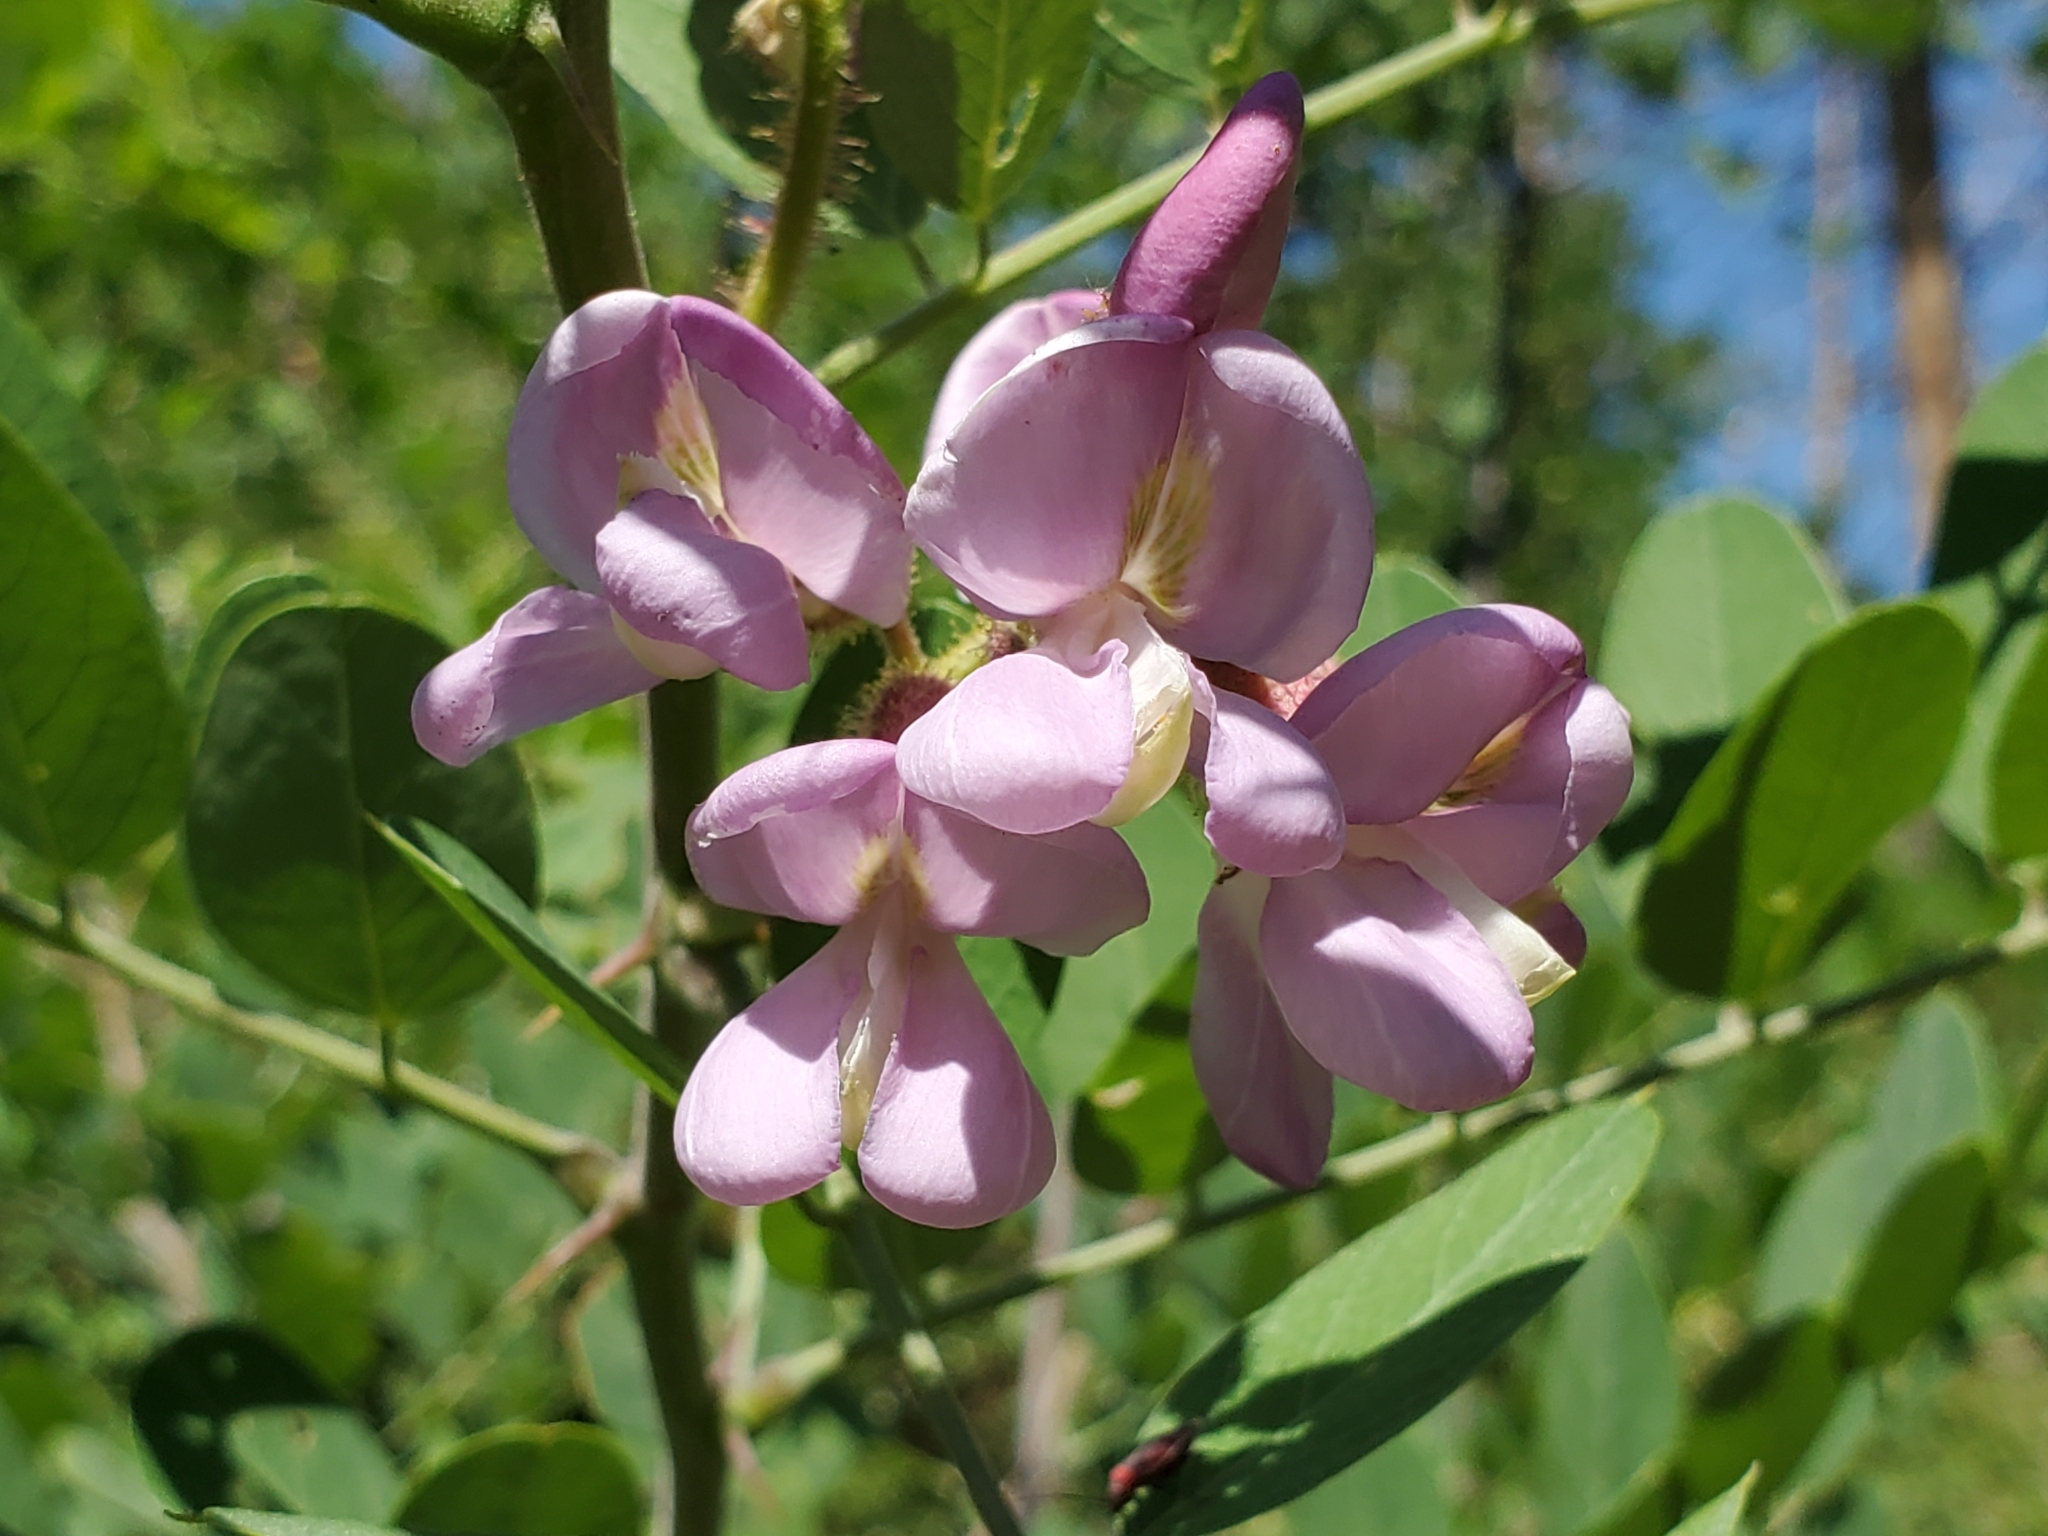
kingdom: Plantae
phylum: Tracheophyta
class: Magnoliopsida
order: Fabales
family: Fabaceae
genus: Robinia
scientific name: Robinia neomexicana
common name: New mexico locust
